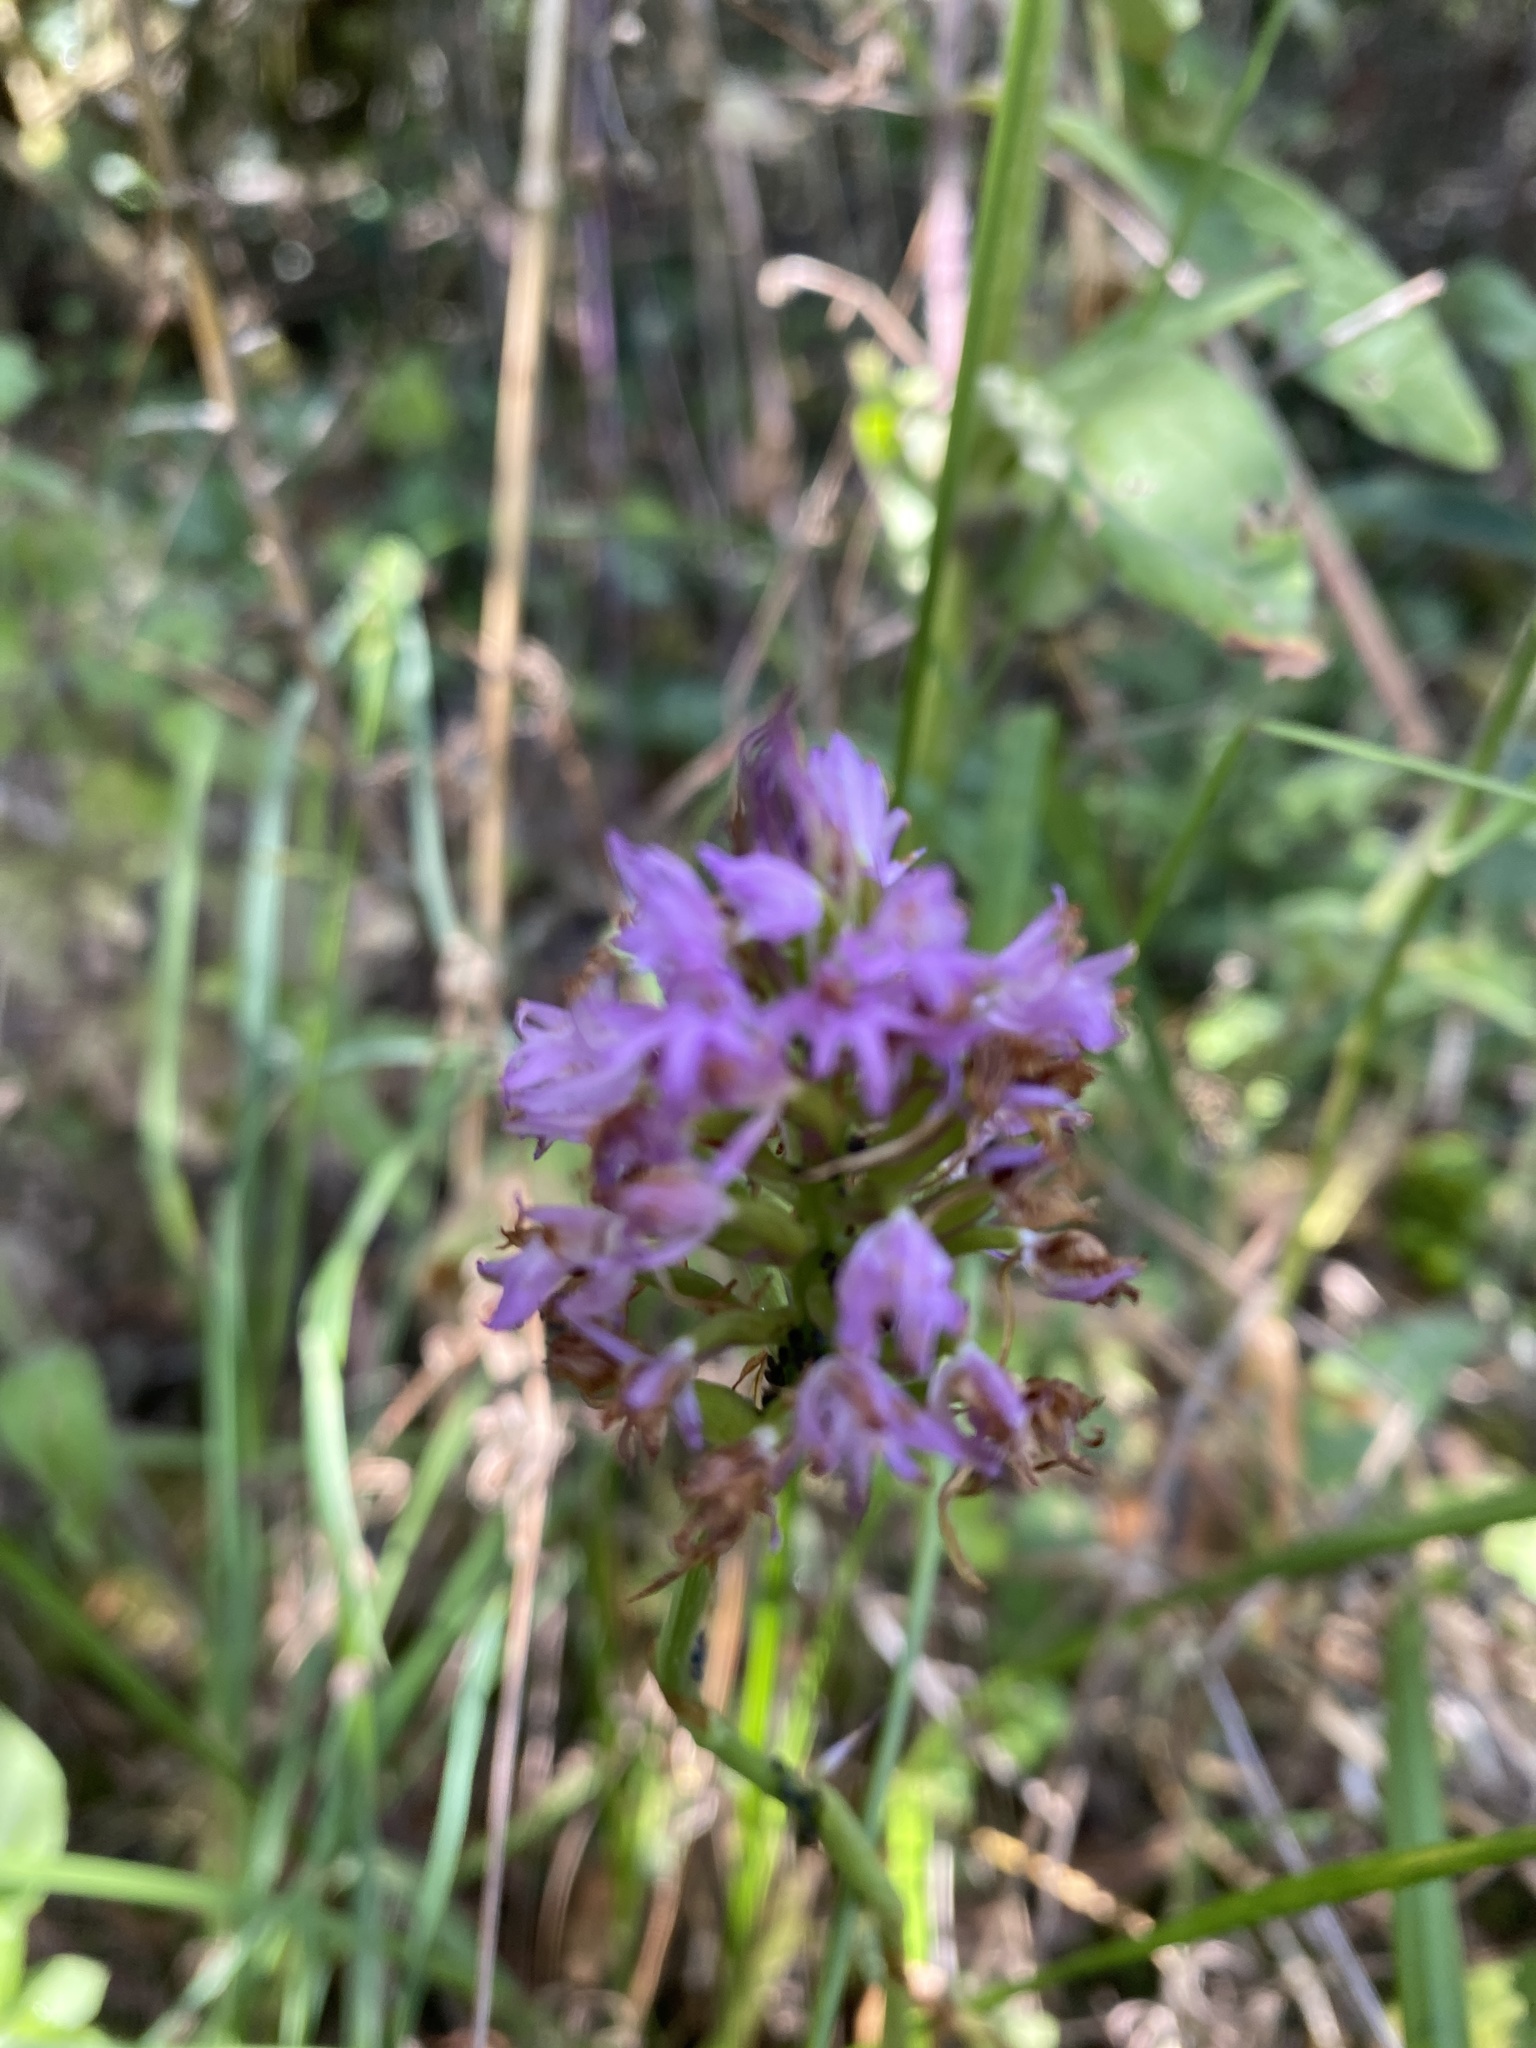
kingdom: Plantae
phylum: Tracheophyta
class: Liliopsida
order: Asparagales
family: Orchidaceae
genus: Anacamptis
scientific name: Anacamptis pyramidalis
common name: Pyramidal orchid
